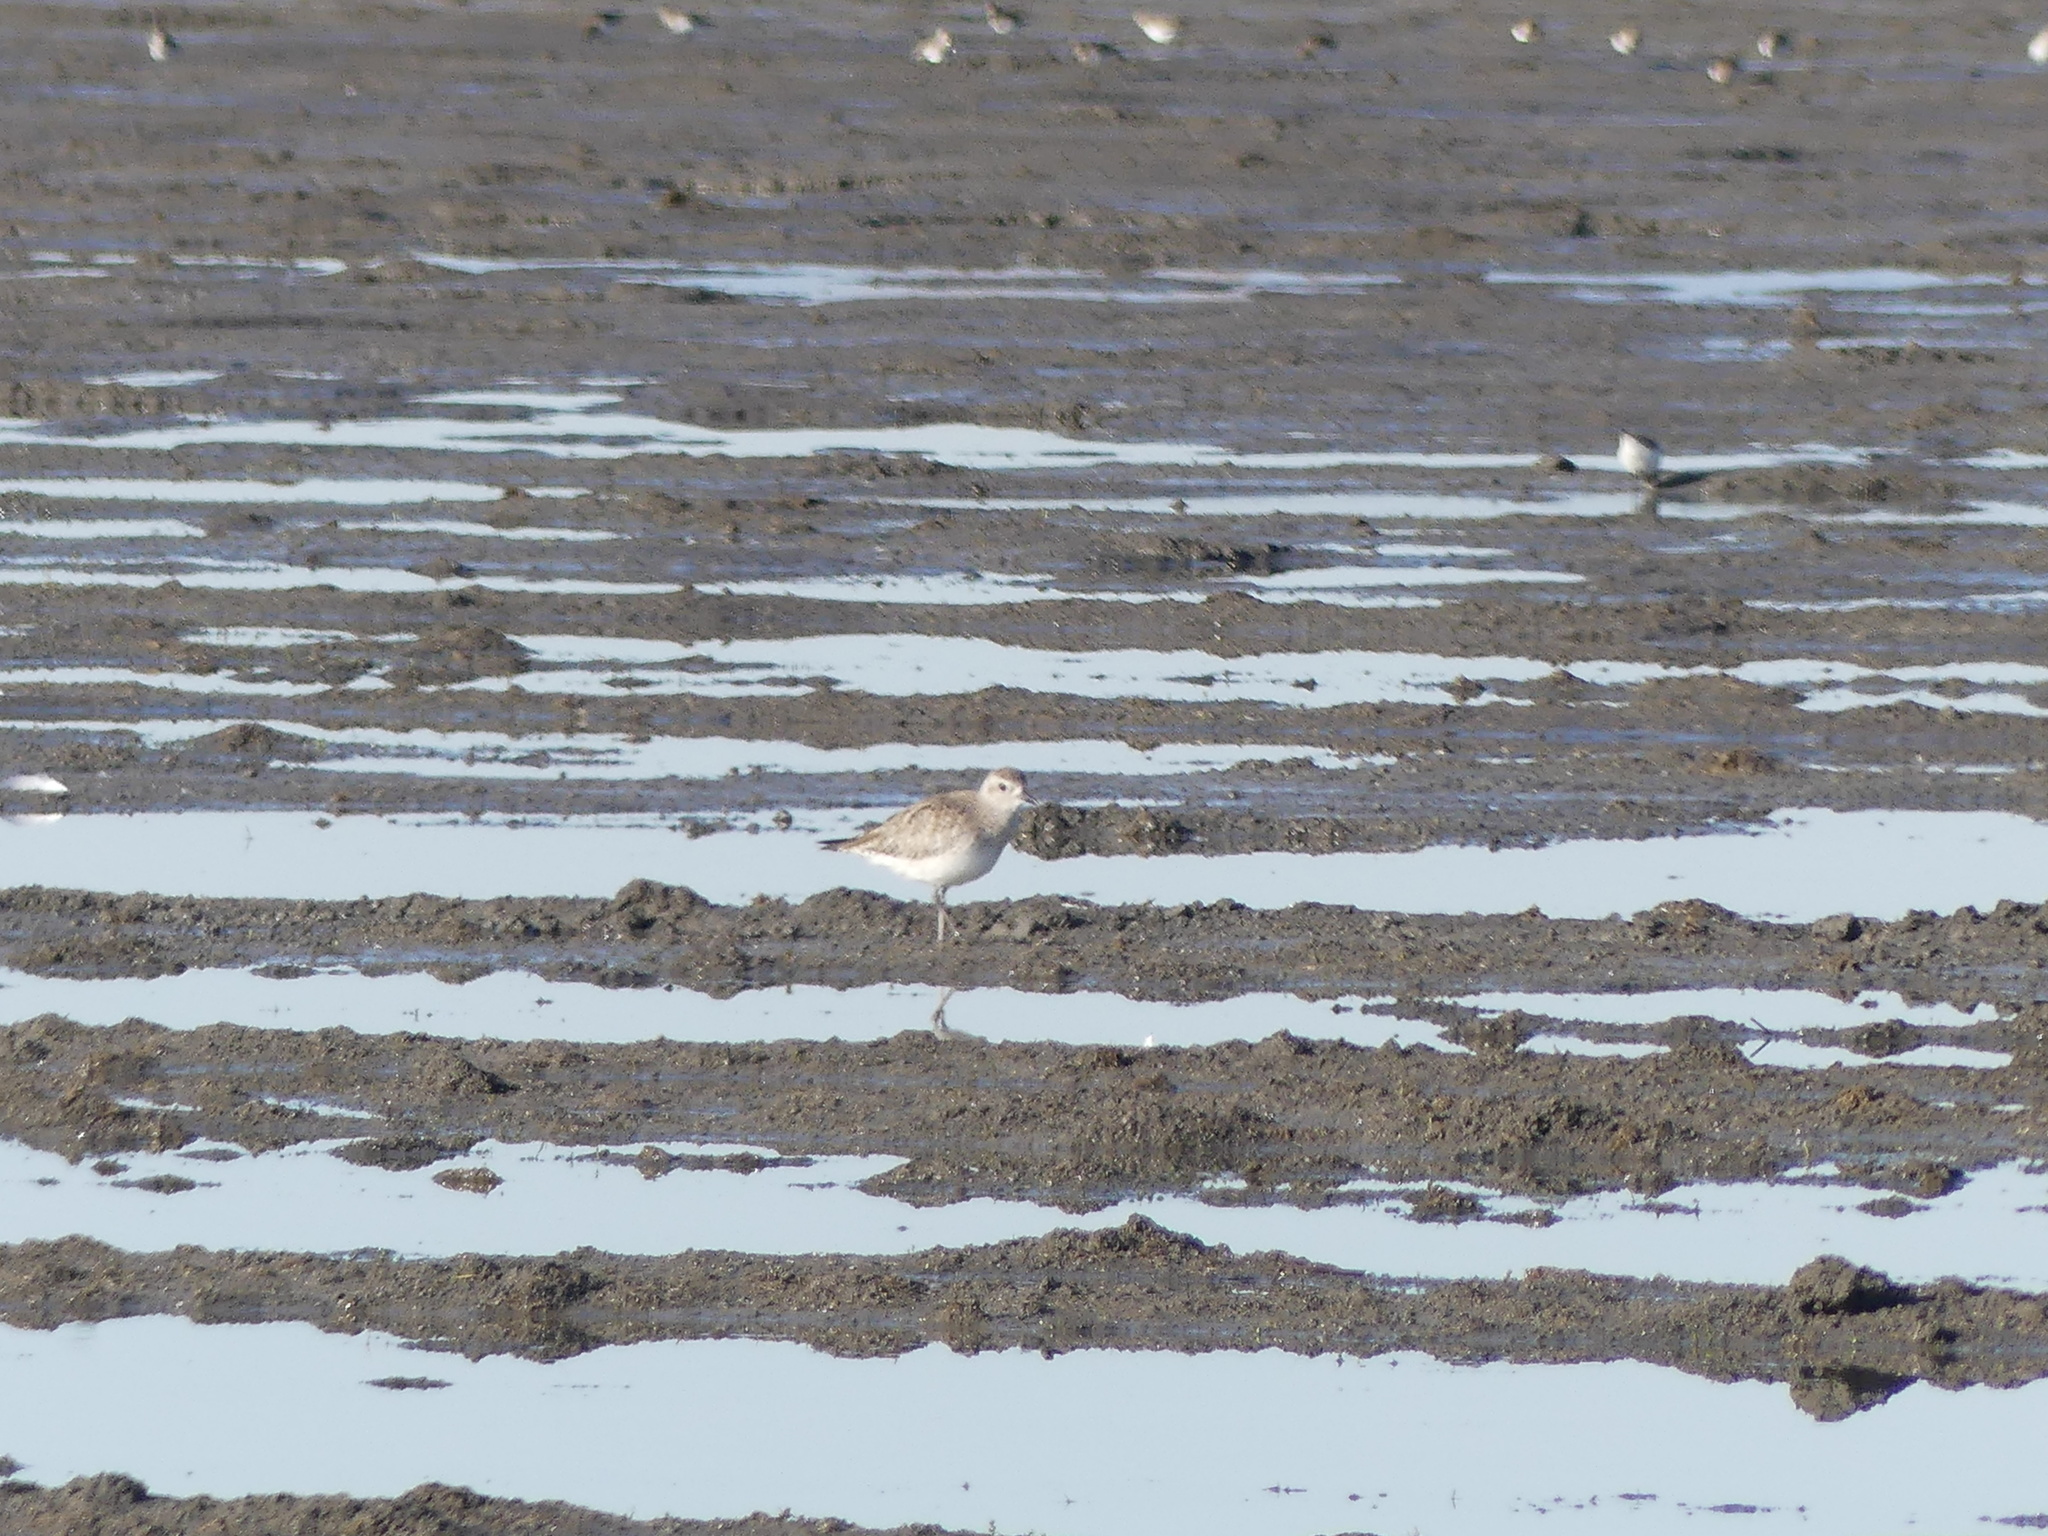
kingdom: Animalia
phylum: Chordata
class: Aves
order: Charadriiformes
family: Charadriidae
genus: Pluvialis
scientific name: Pluvialis squatarola
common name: Grey plover
